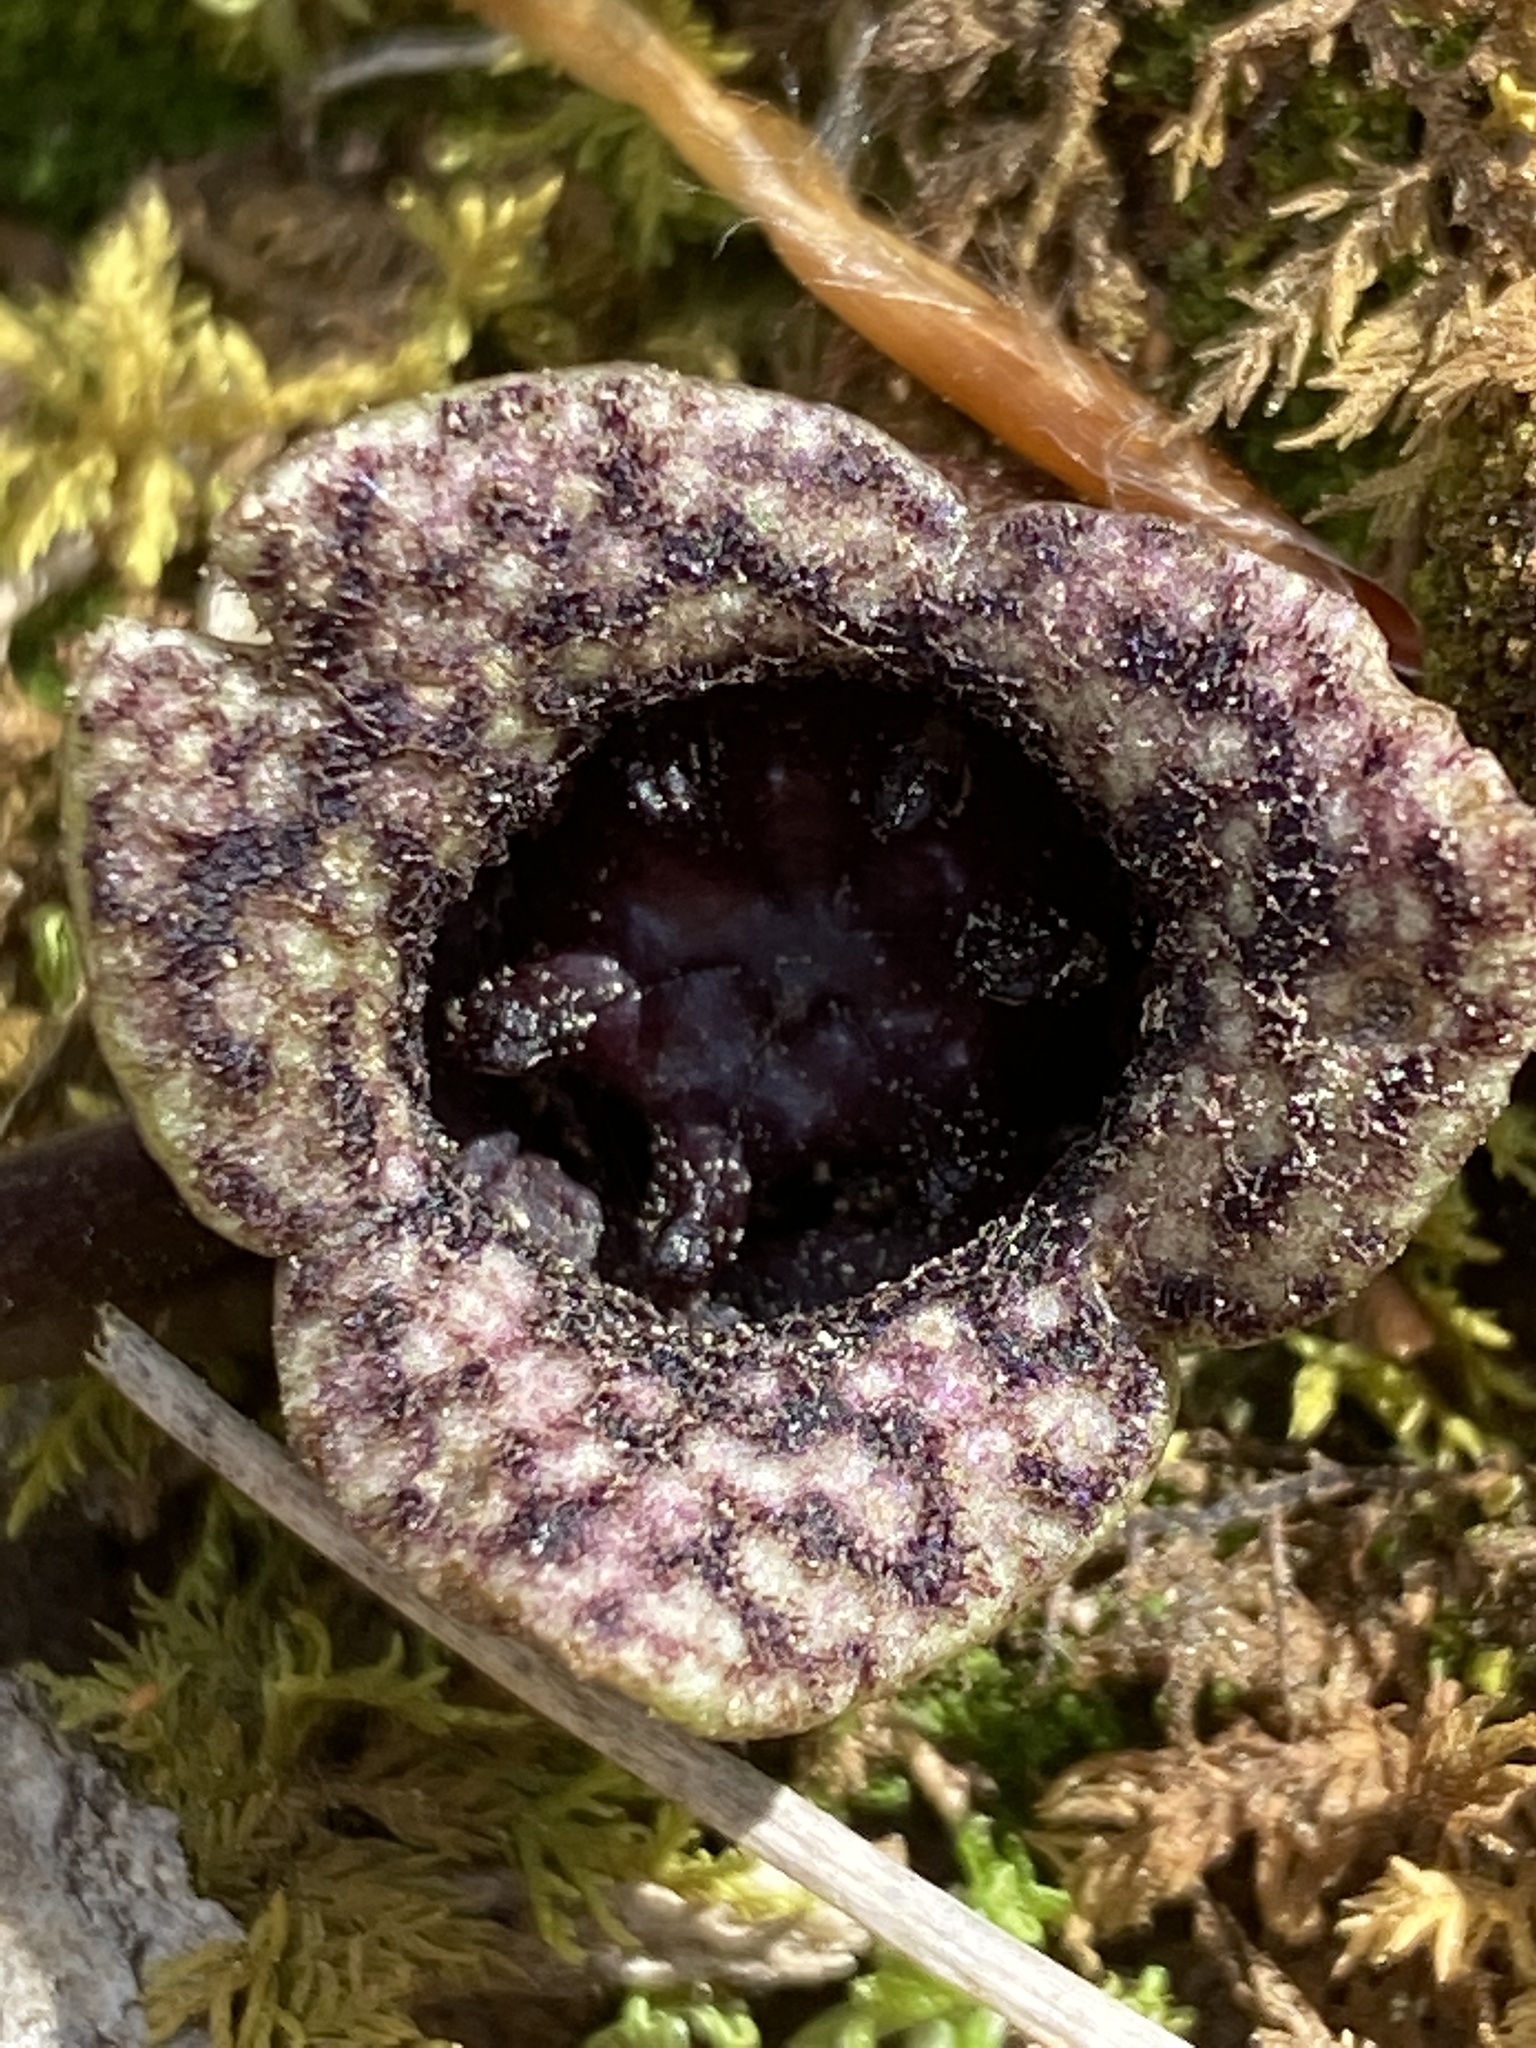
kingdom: Plantae
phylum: Tracheophyta
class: Magnoliopsida
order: Piperales
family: Aristolochiaceae
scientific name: Aristolochiaceae
